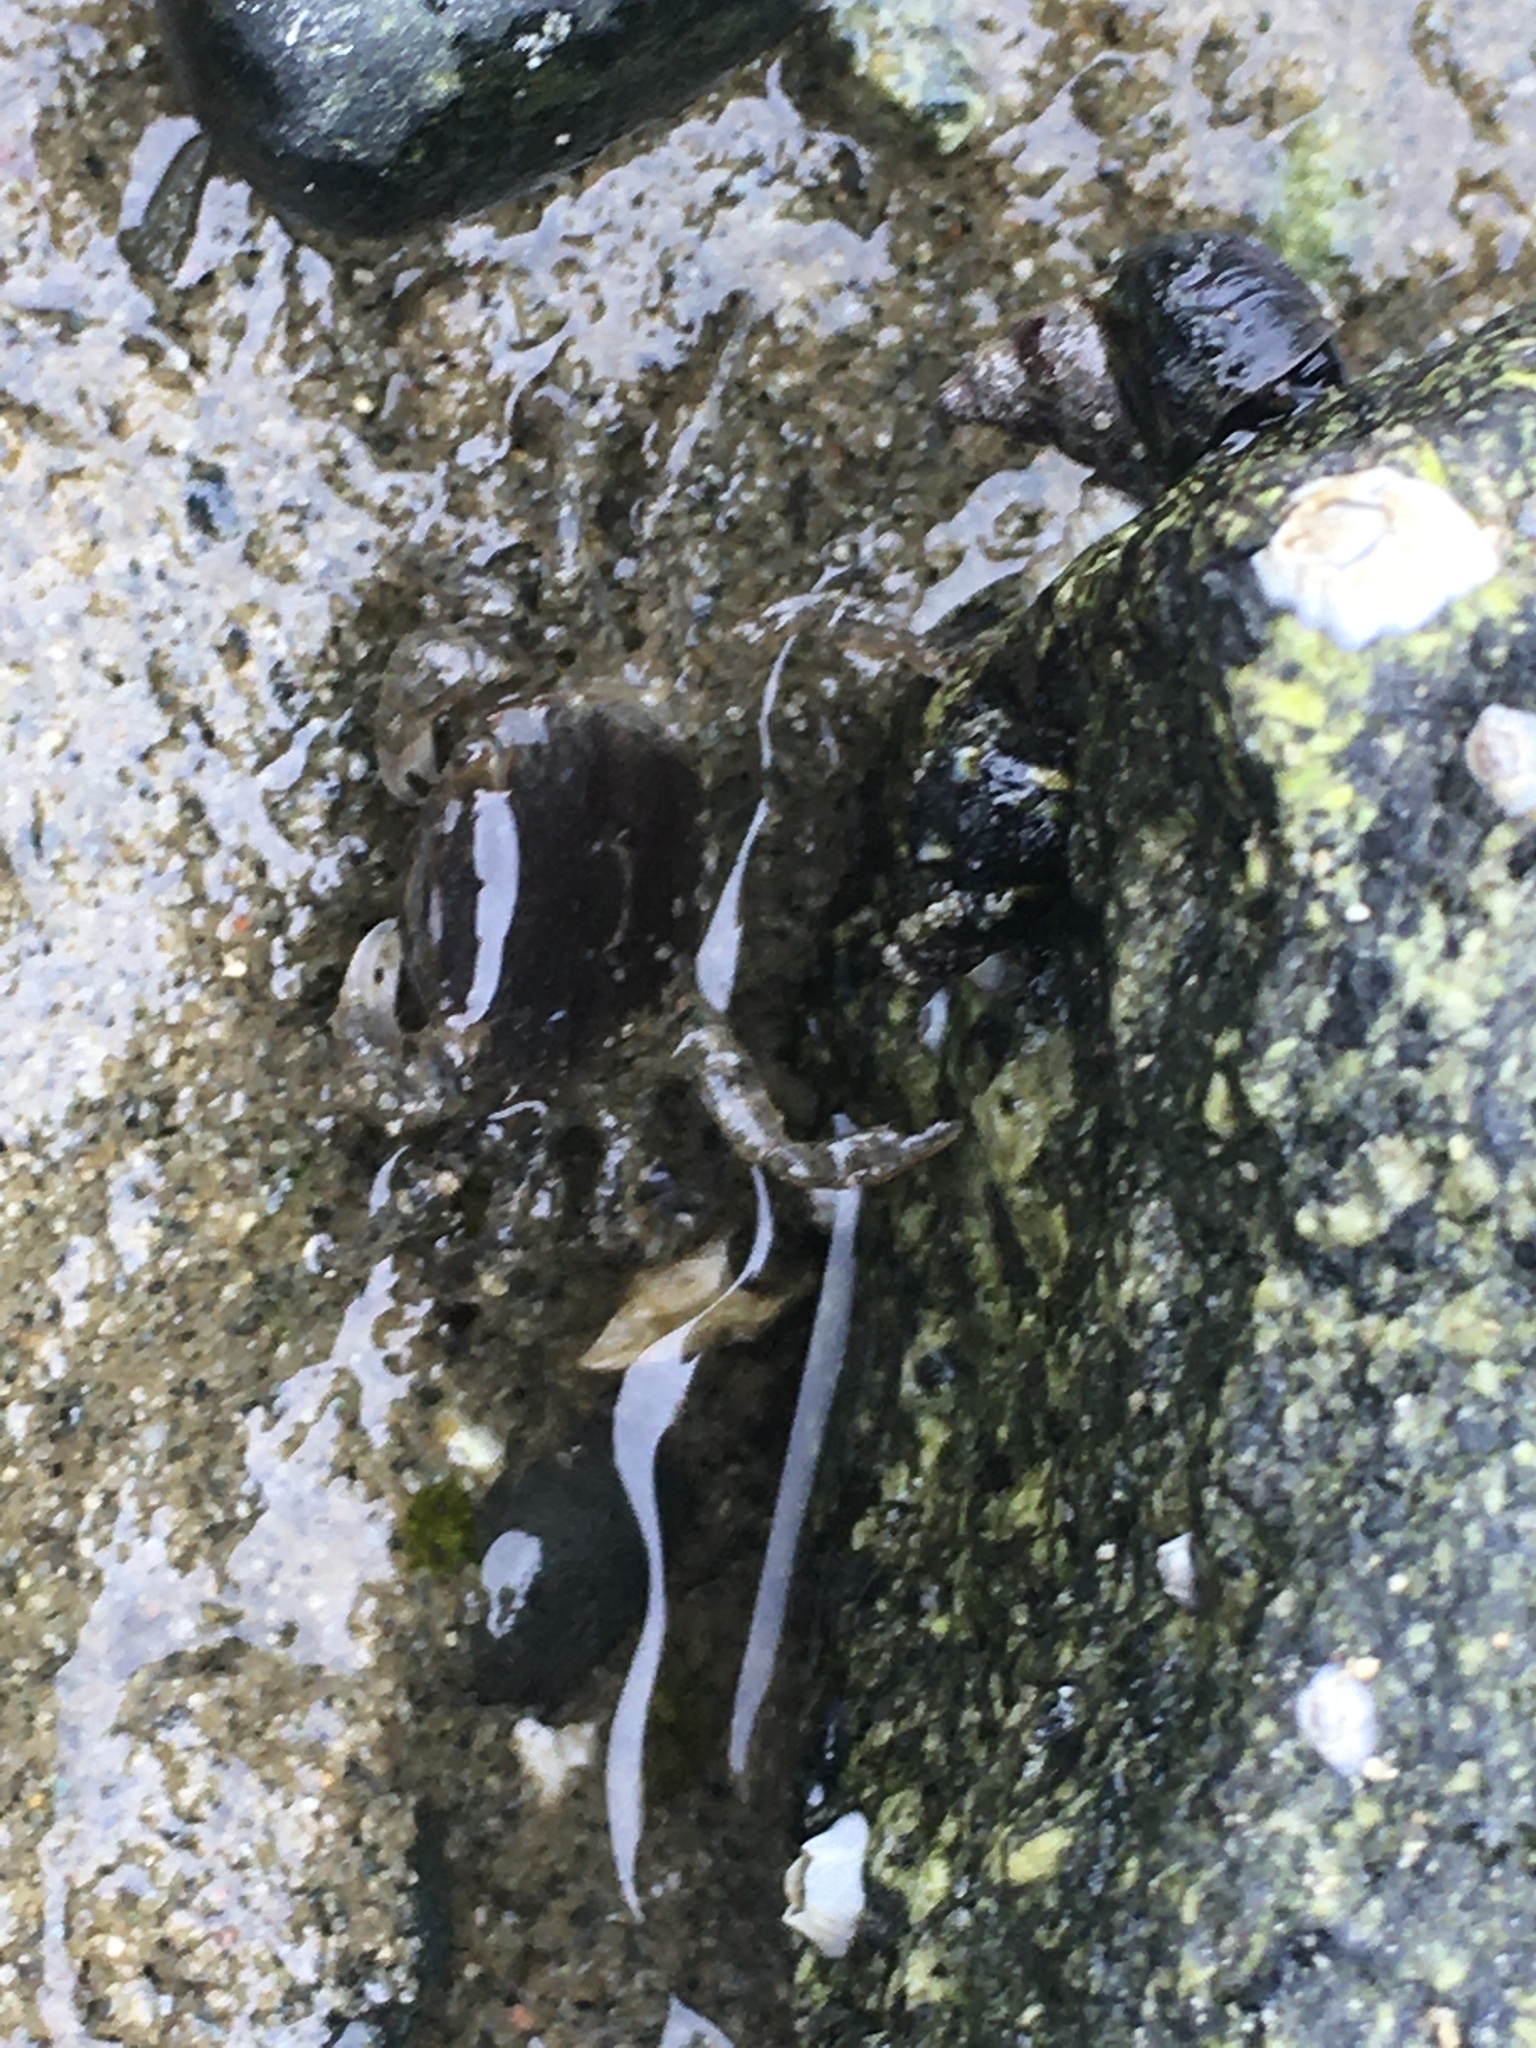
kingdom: Animalia
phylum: Arthropoda
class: Malacostraca
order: Decapoda
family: Varunidae
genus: Hemigrapsus
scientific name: Hemigrapsus oregonensis
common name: Yellow shore crab
